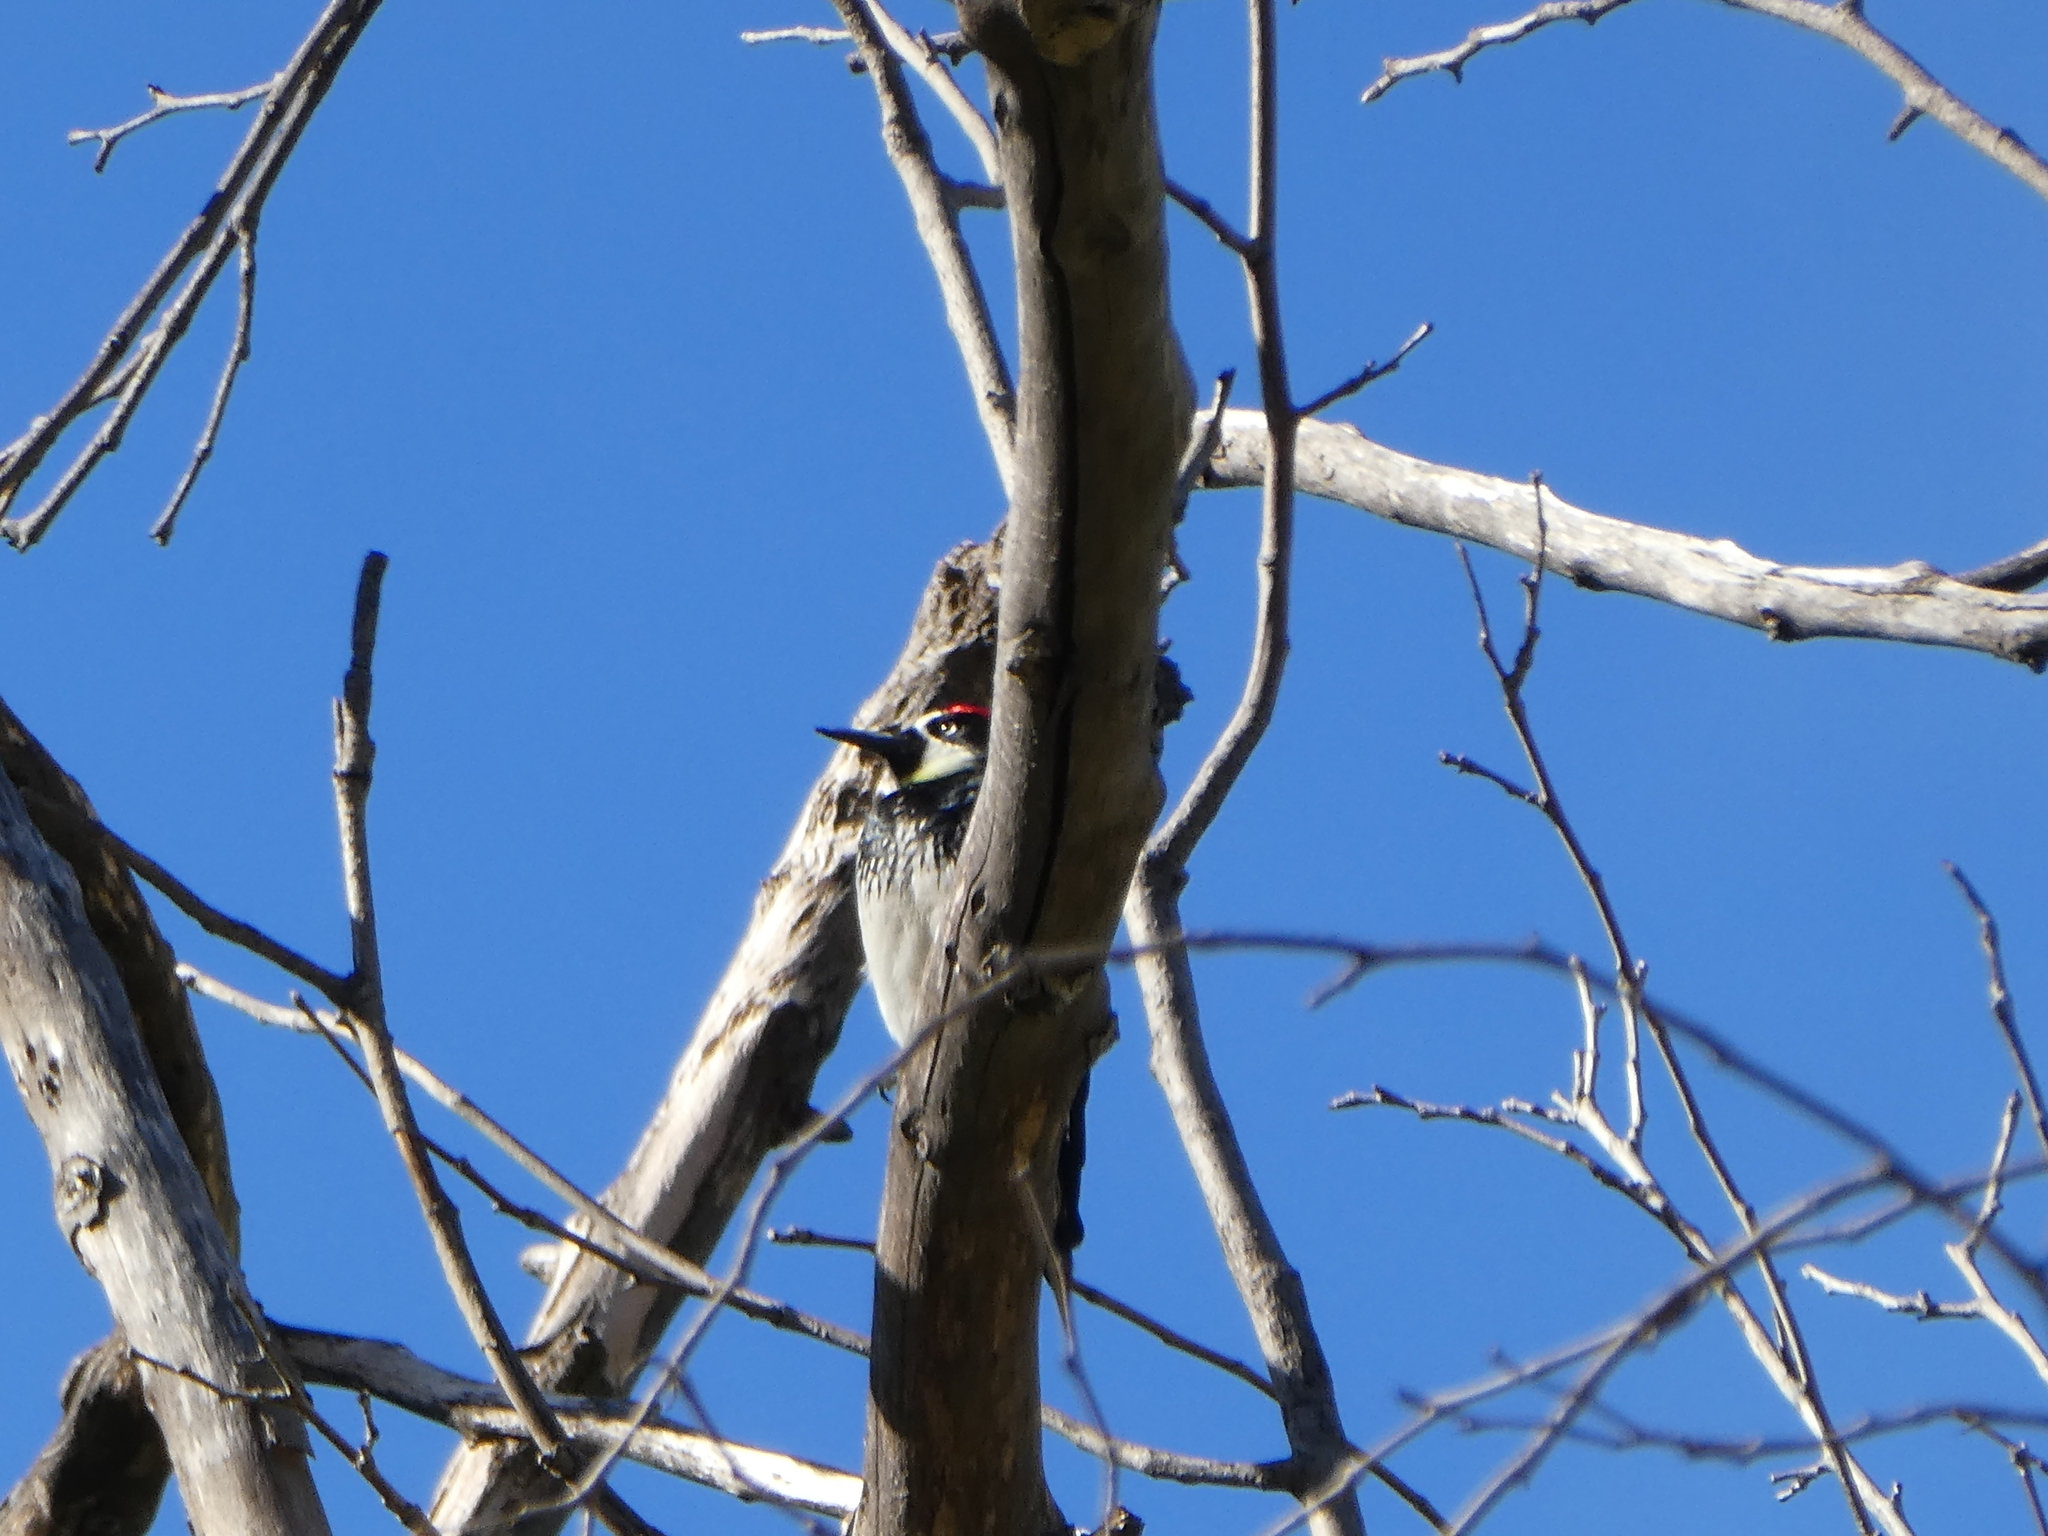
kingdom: Animalia
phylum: Chordata
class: Aves
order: Piciformes
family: Picidae
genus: Melanerpes
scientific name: Melanerpes formicivorus
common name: Acorn woodpecker
